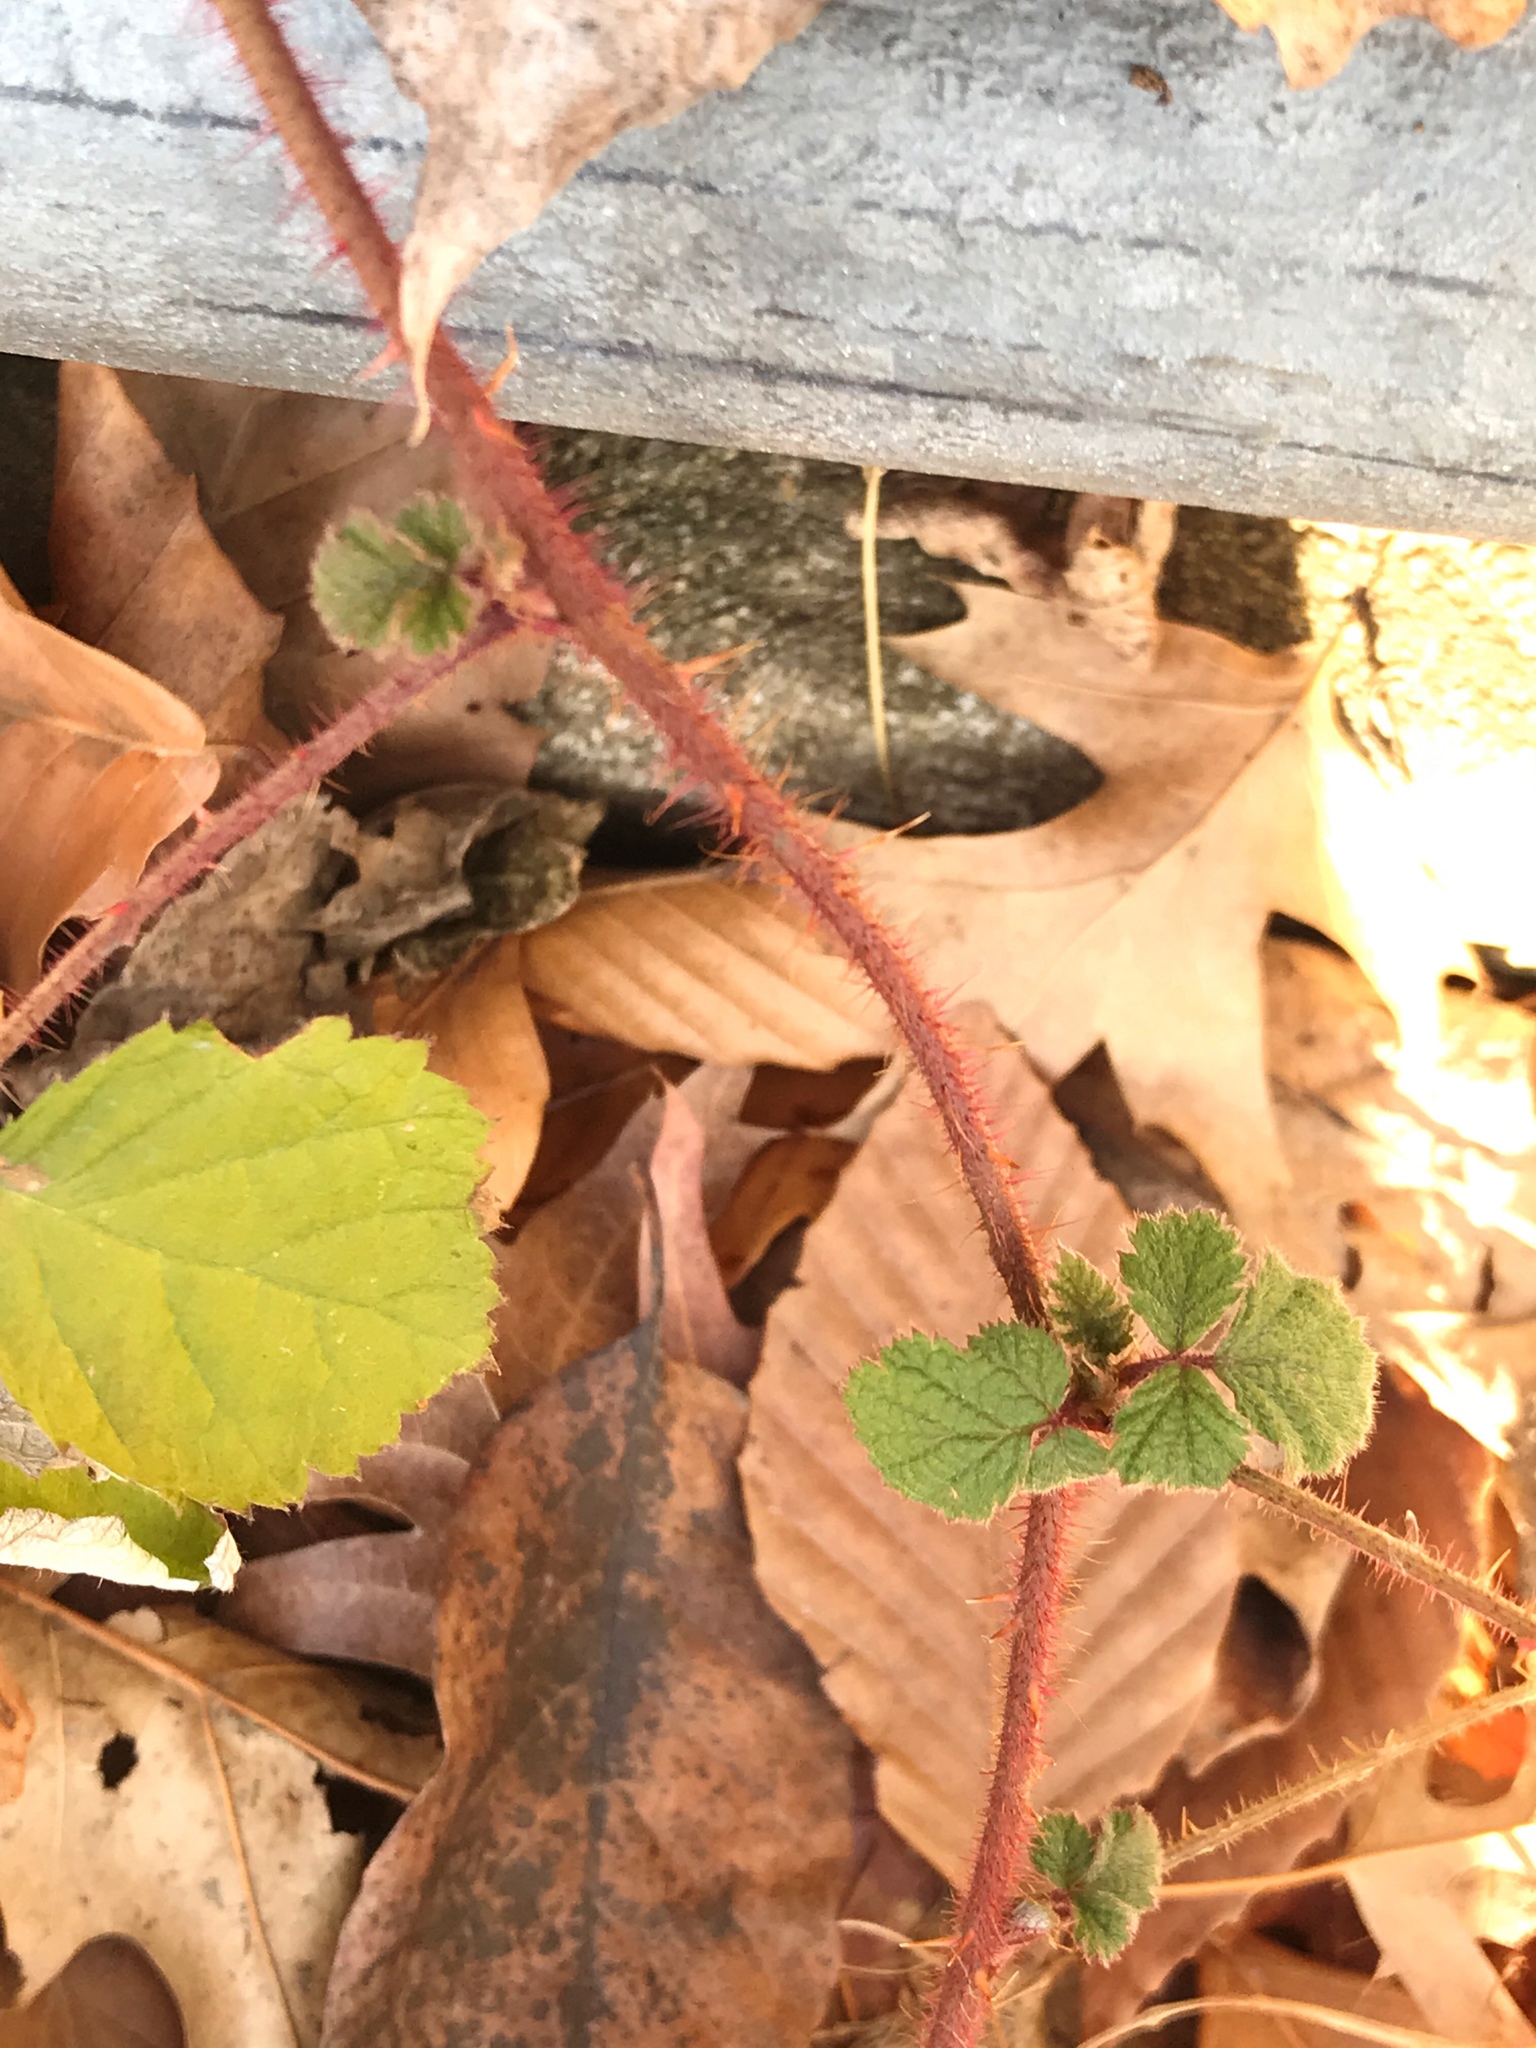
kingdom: Plantae
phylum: Tracheophyta
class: Magnoliopsida
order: Rosales
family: Rosaceae
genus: Rubus
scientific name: Rubus phoenicolasius
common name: Japanese wineberry
